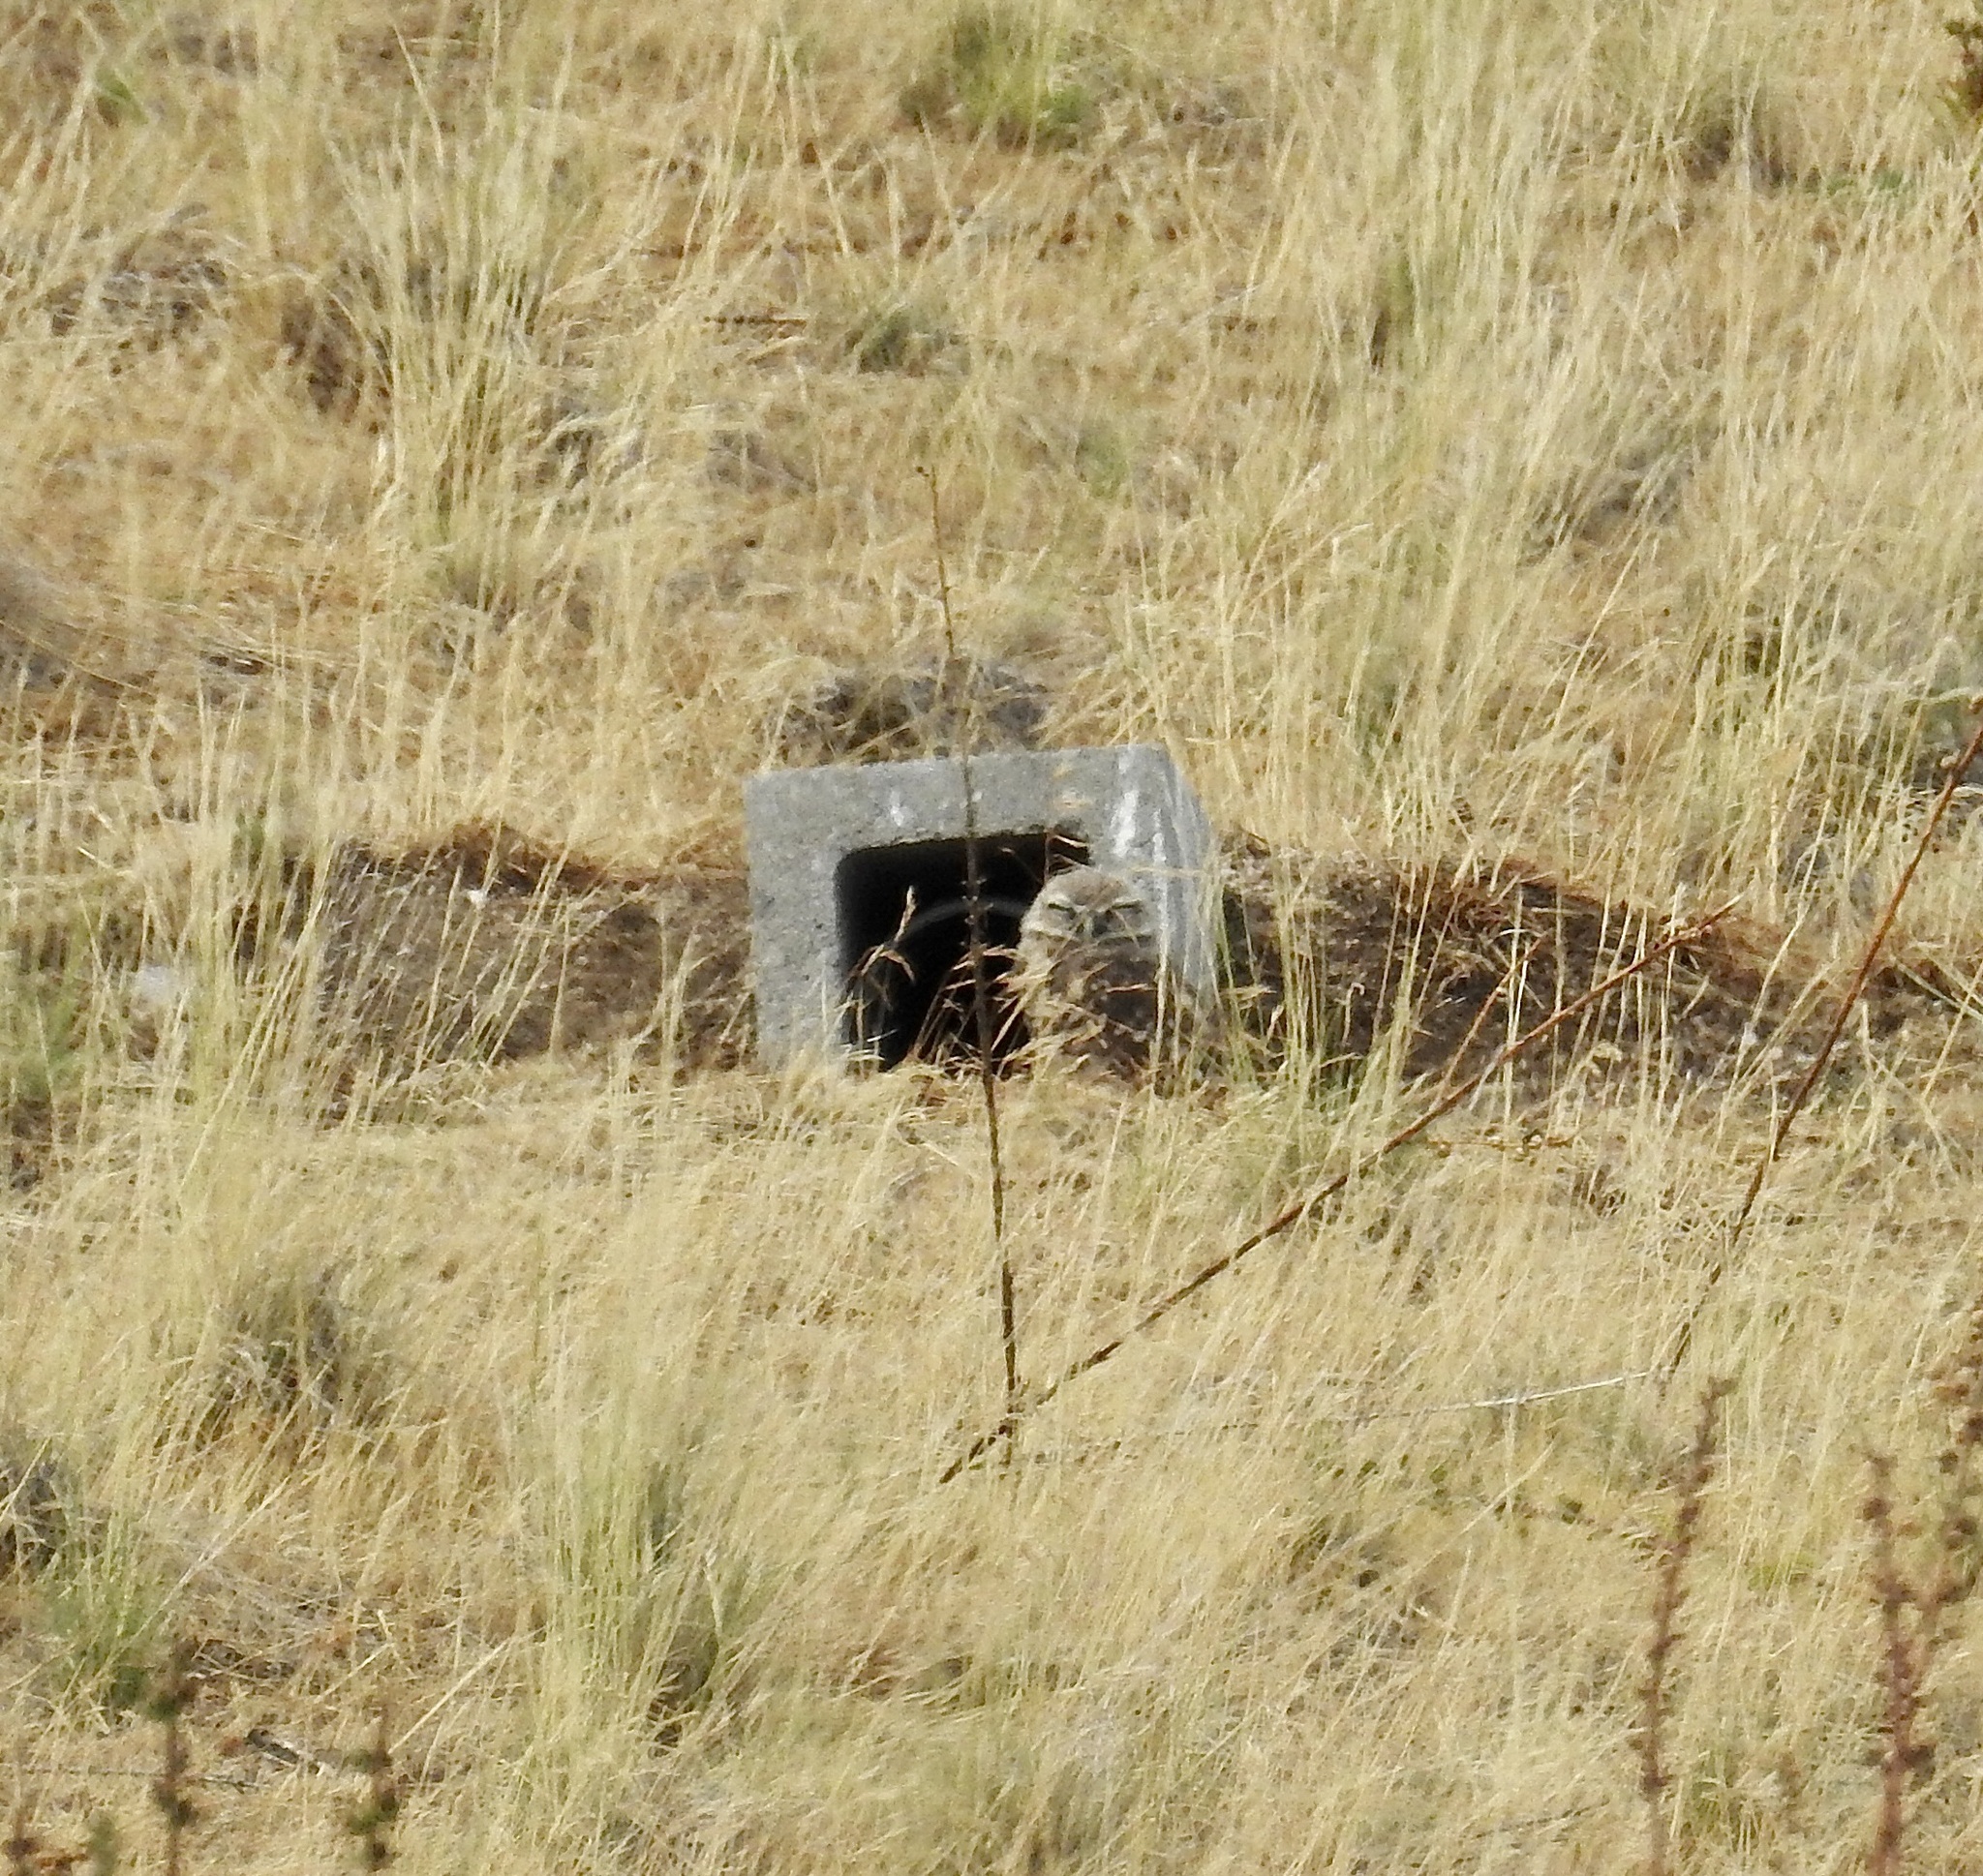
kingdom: Animalia
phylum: Chordata
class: Aves
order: Strigiformes
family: Strigidae
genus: Athene
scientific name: Athene cunicularia
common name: Burrowing owl
